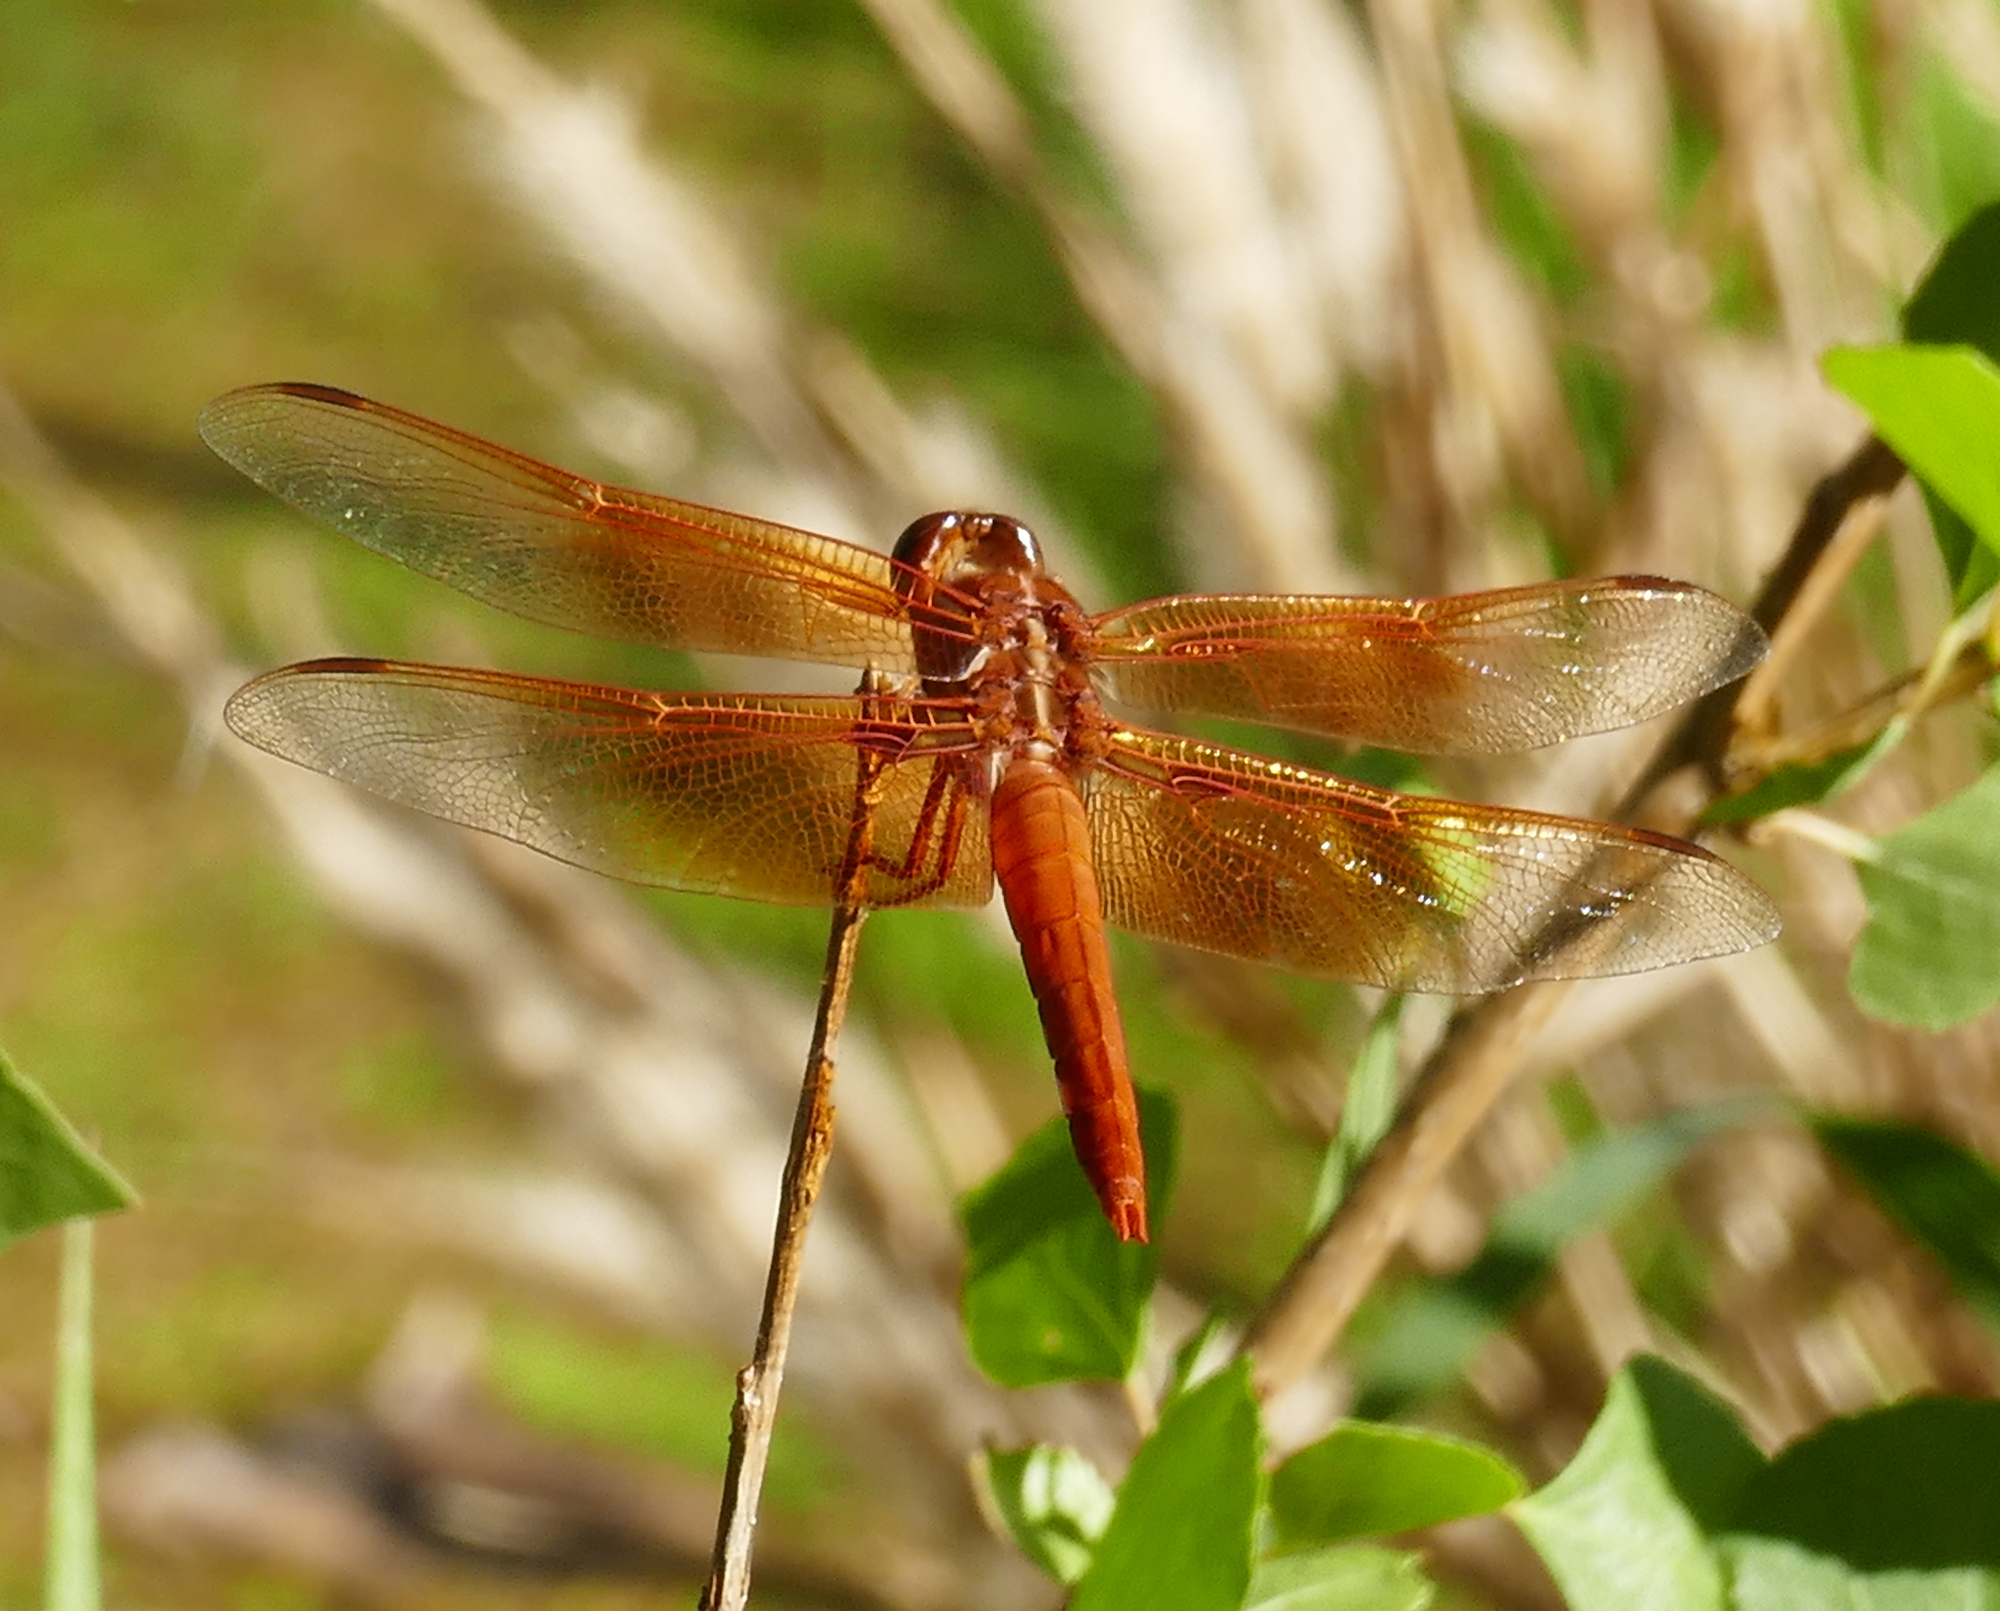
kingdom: Animalia
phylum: Arthropoda
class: Insecta
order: Odonata
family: Libellulidae
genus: Libellula
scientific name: Libellula saturata
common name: Flame skimmer
